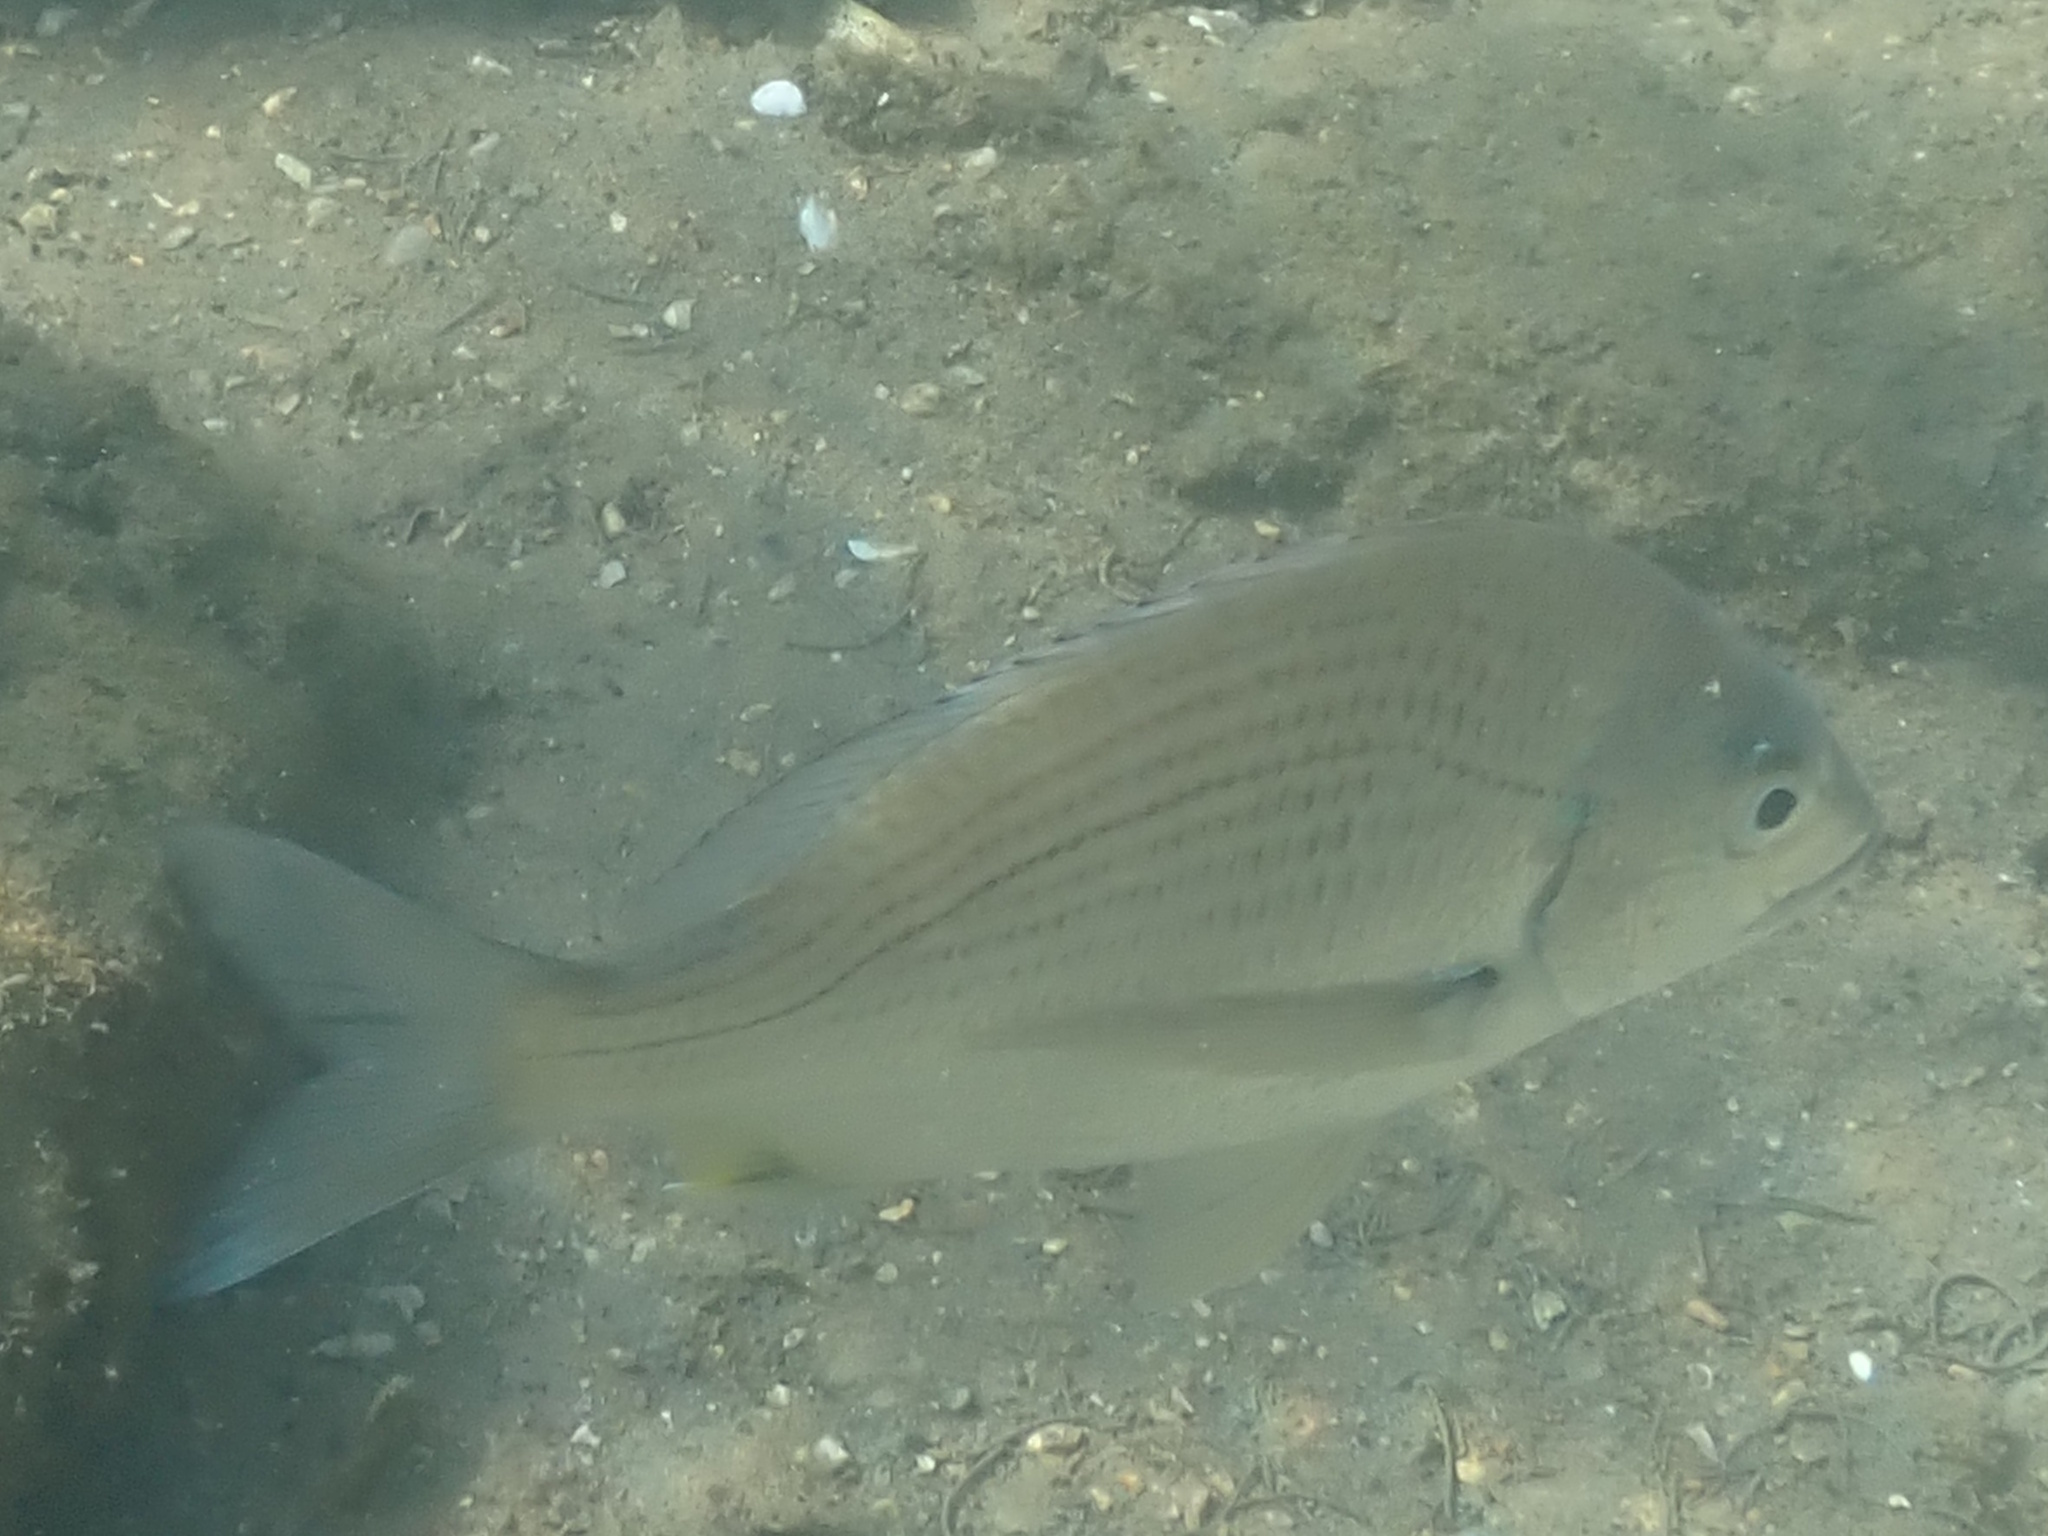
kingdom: Animalia
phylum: Chordata
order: Perciformes
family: Sparidae
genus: Acanthopagrus
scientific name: Acanthopagrus australis
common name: Surf bream
